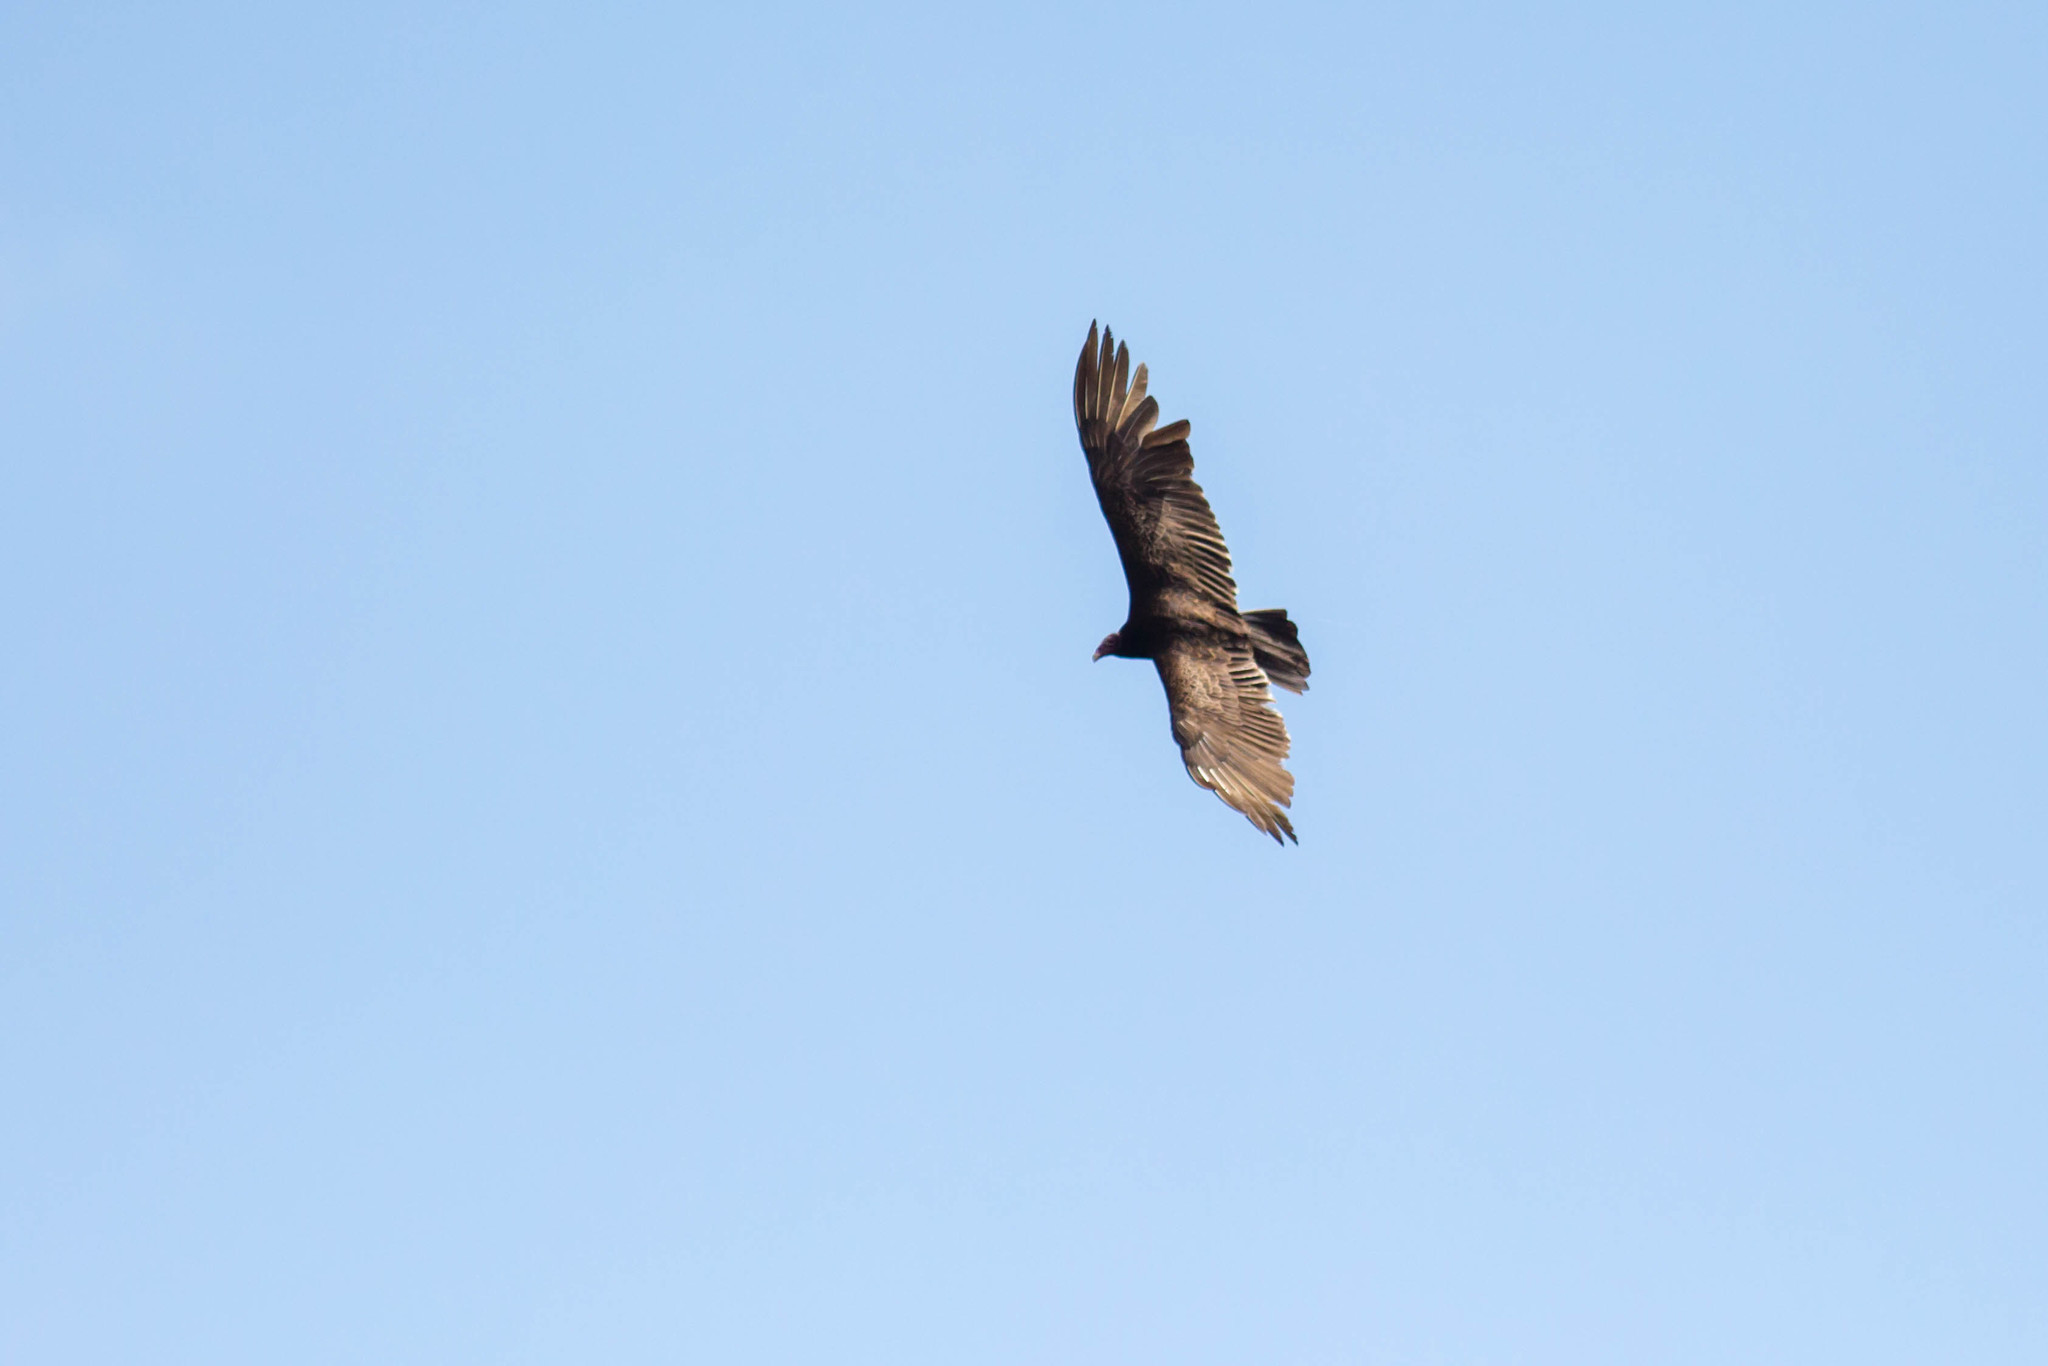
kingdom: Animalia
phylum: Chordata
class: Aves
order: Accipitriformes
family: Cathartidae
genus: Cathartes
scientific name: Cathartes aura
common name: Turkey vulture
